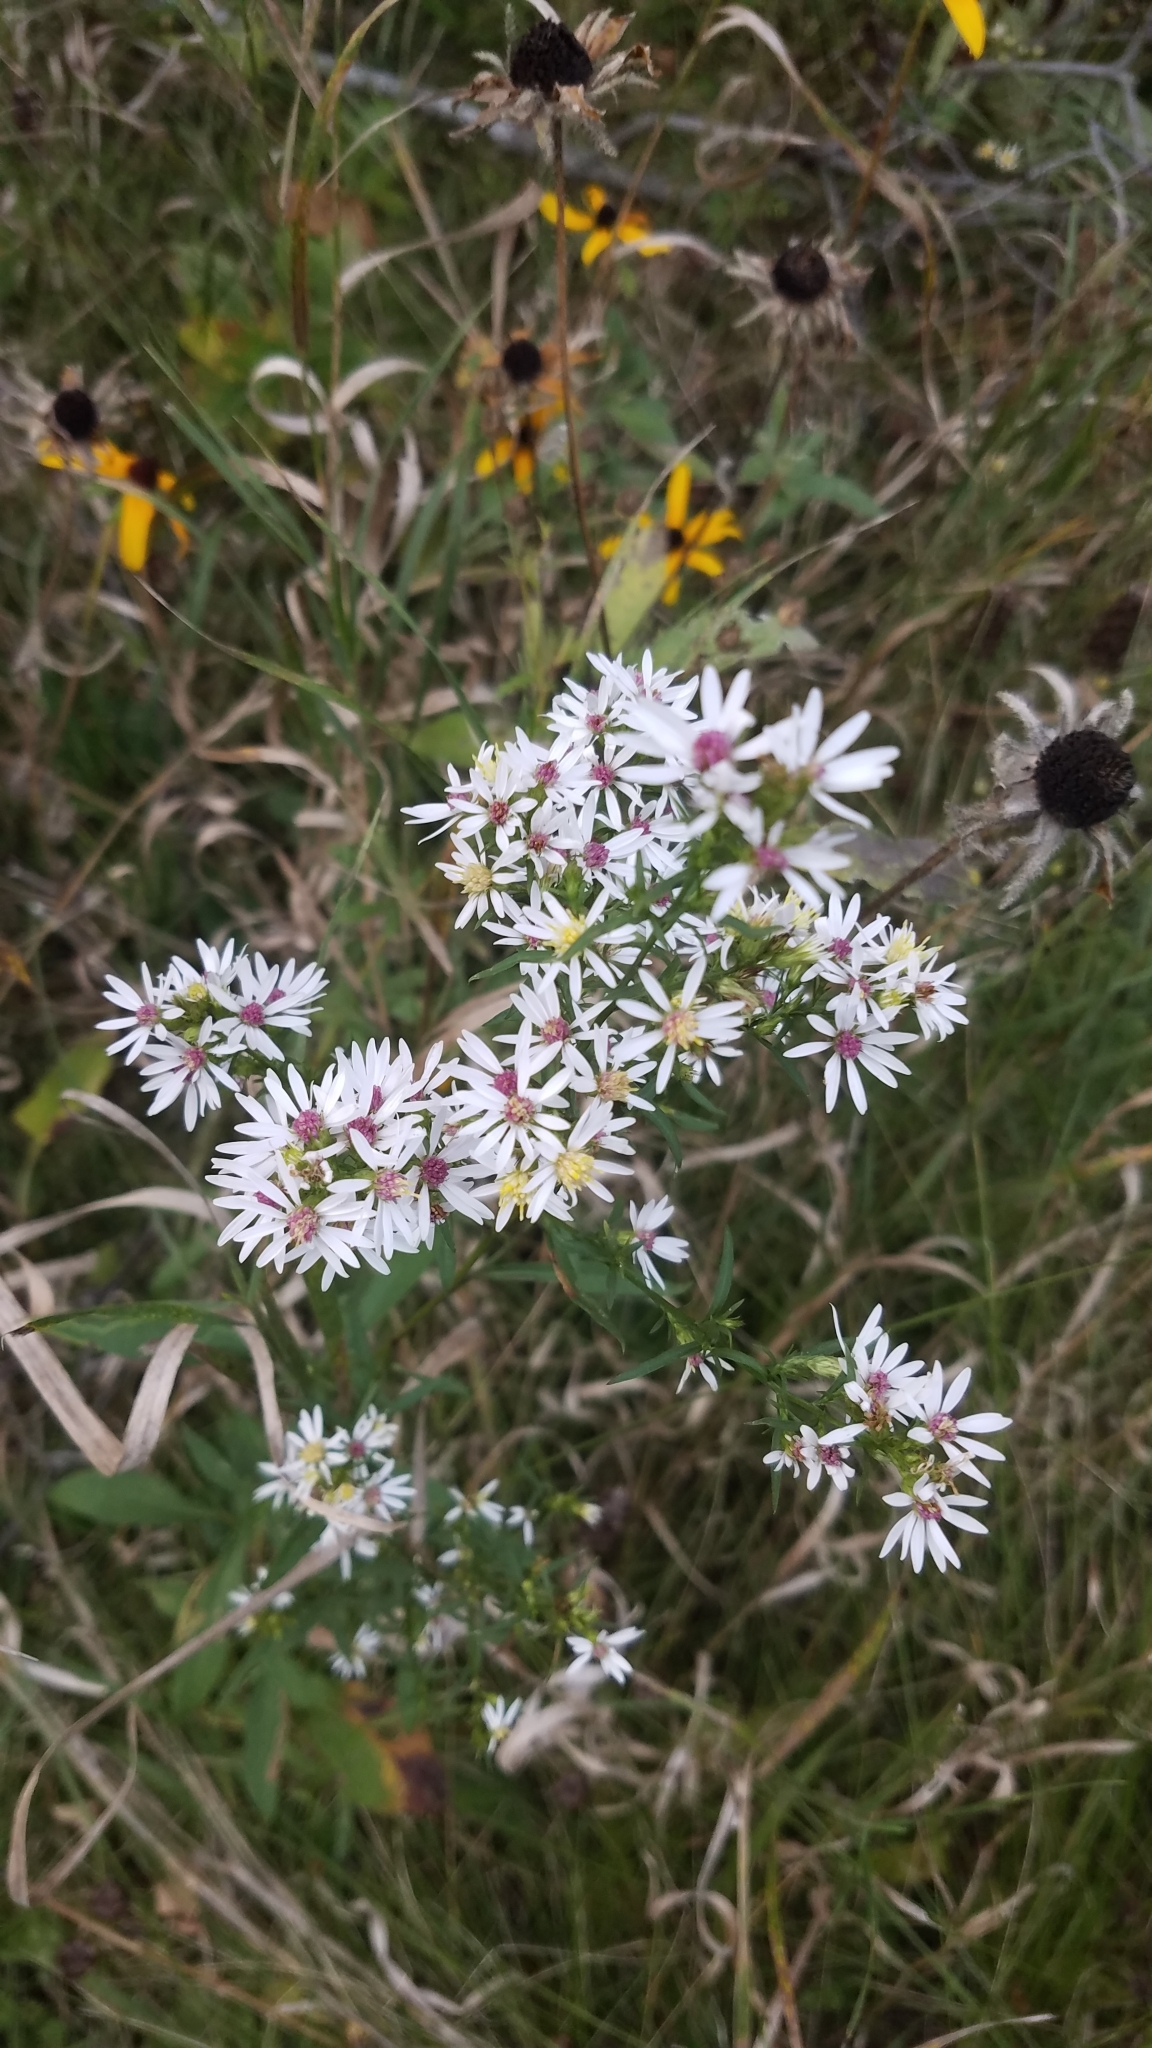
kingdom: Plantae
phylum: Tracheophyta
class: Magnoliopsida
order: Asterales
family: Asteraceae
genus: Symphyotrichum
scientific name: Symphyotrichum urophyllum
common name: Arrow-leaved aster
